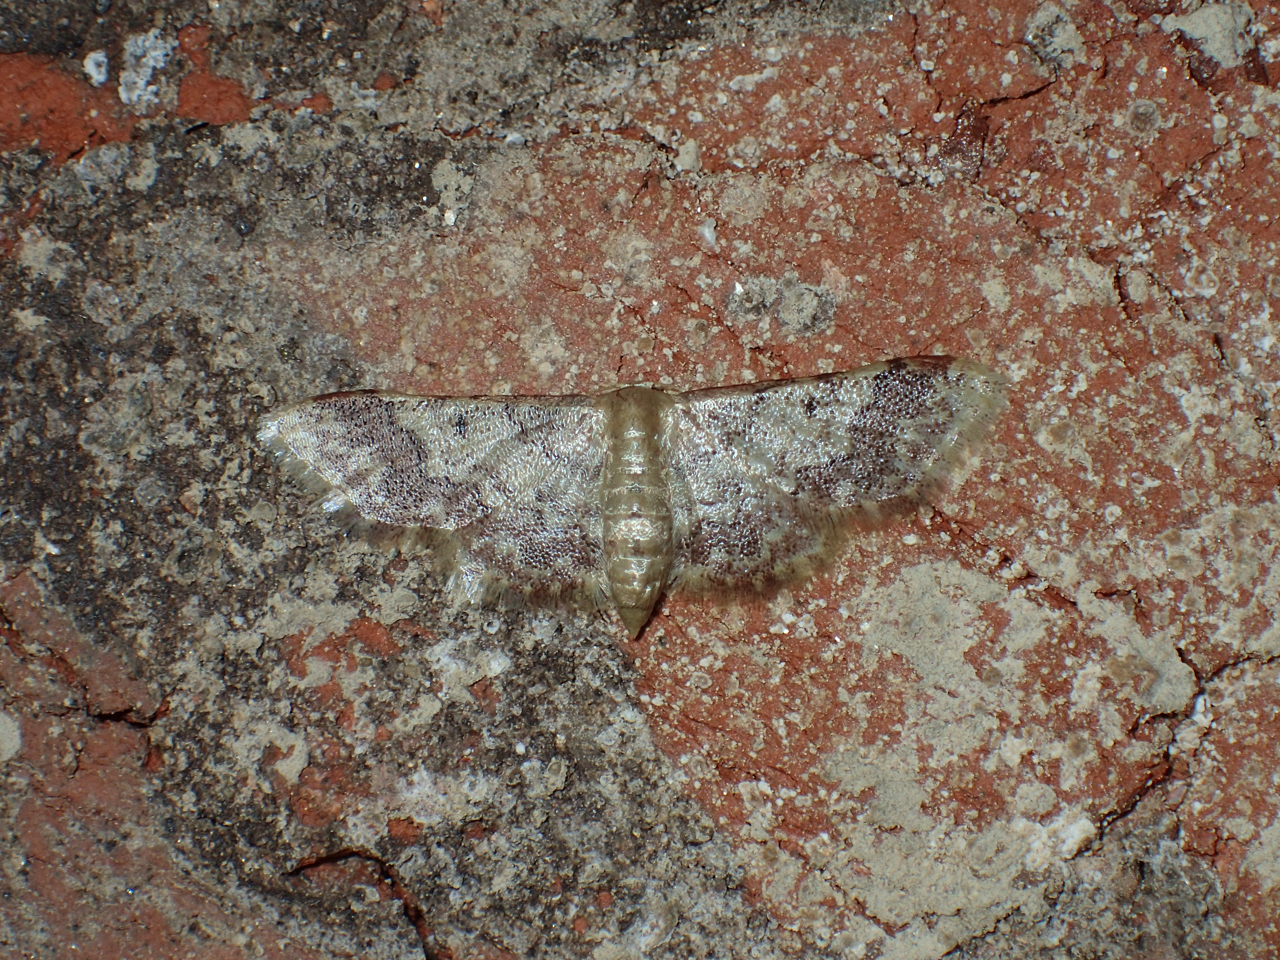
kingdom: Animalia
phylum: Arthropoda
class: Insecta
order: Lepidoptera
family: Geometridae
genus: Idaea
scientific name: Idaea furciferata
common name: Notch-winged wave
